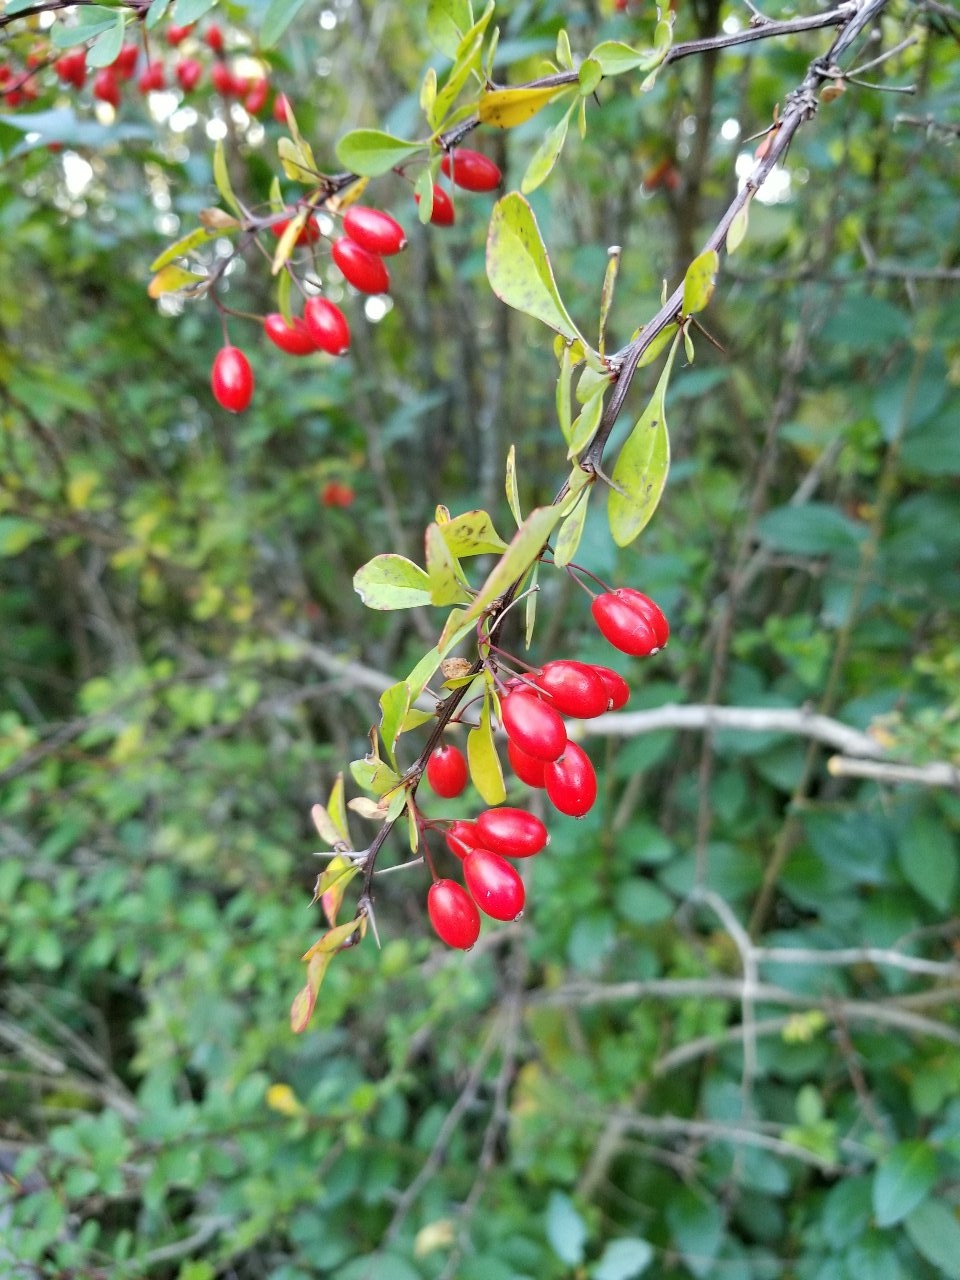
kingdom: Plantae
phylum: Tracheophyta
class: Magnoliopsida
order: Ranunculales
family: Berberidaceae
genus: Berberis
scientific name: Berberis thunbergii
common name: Japanese barberry
